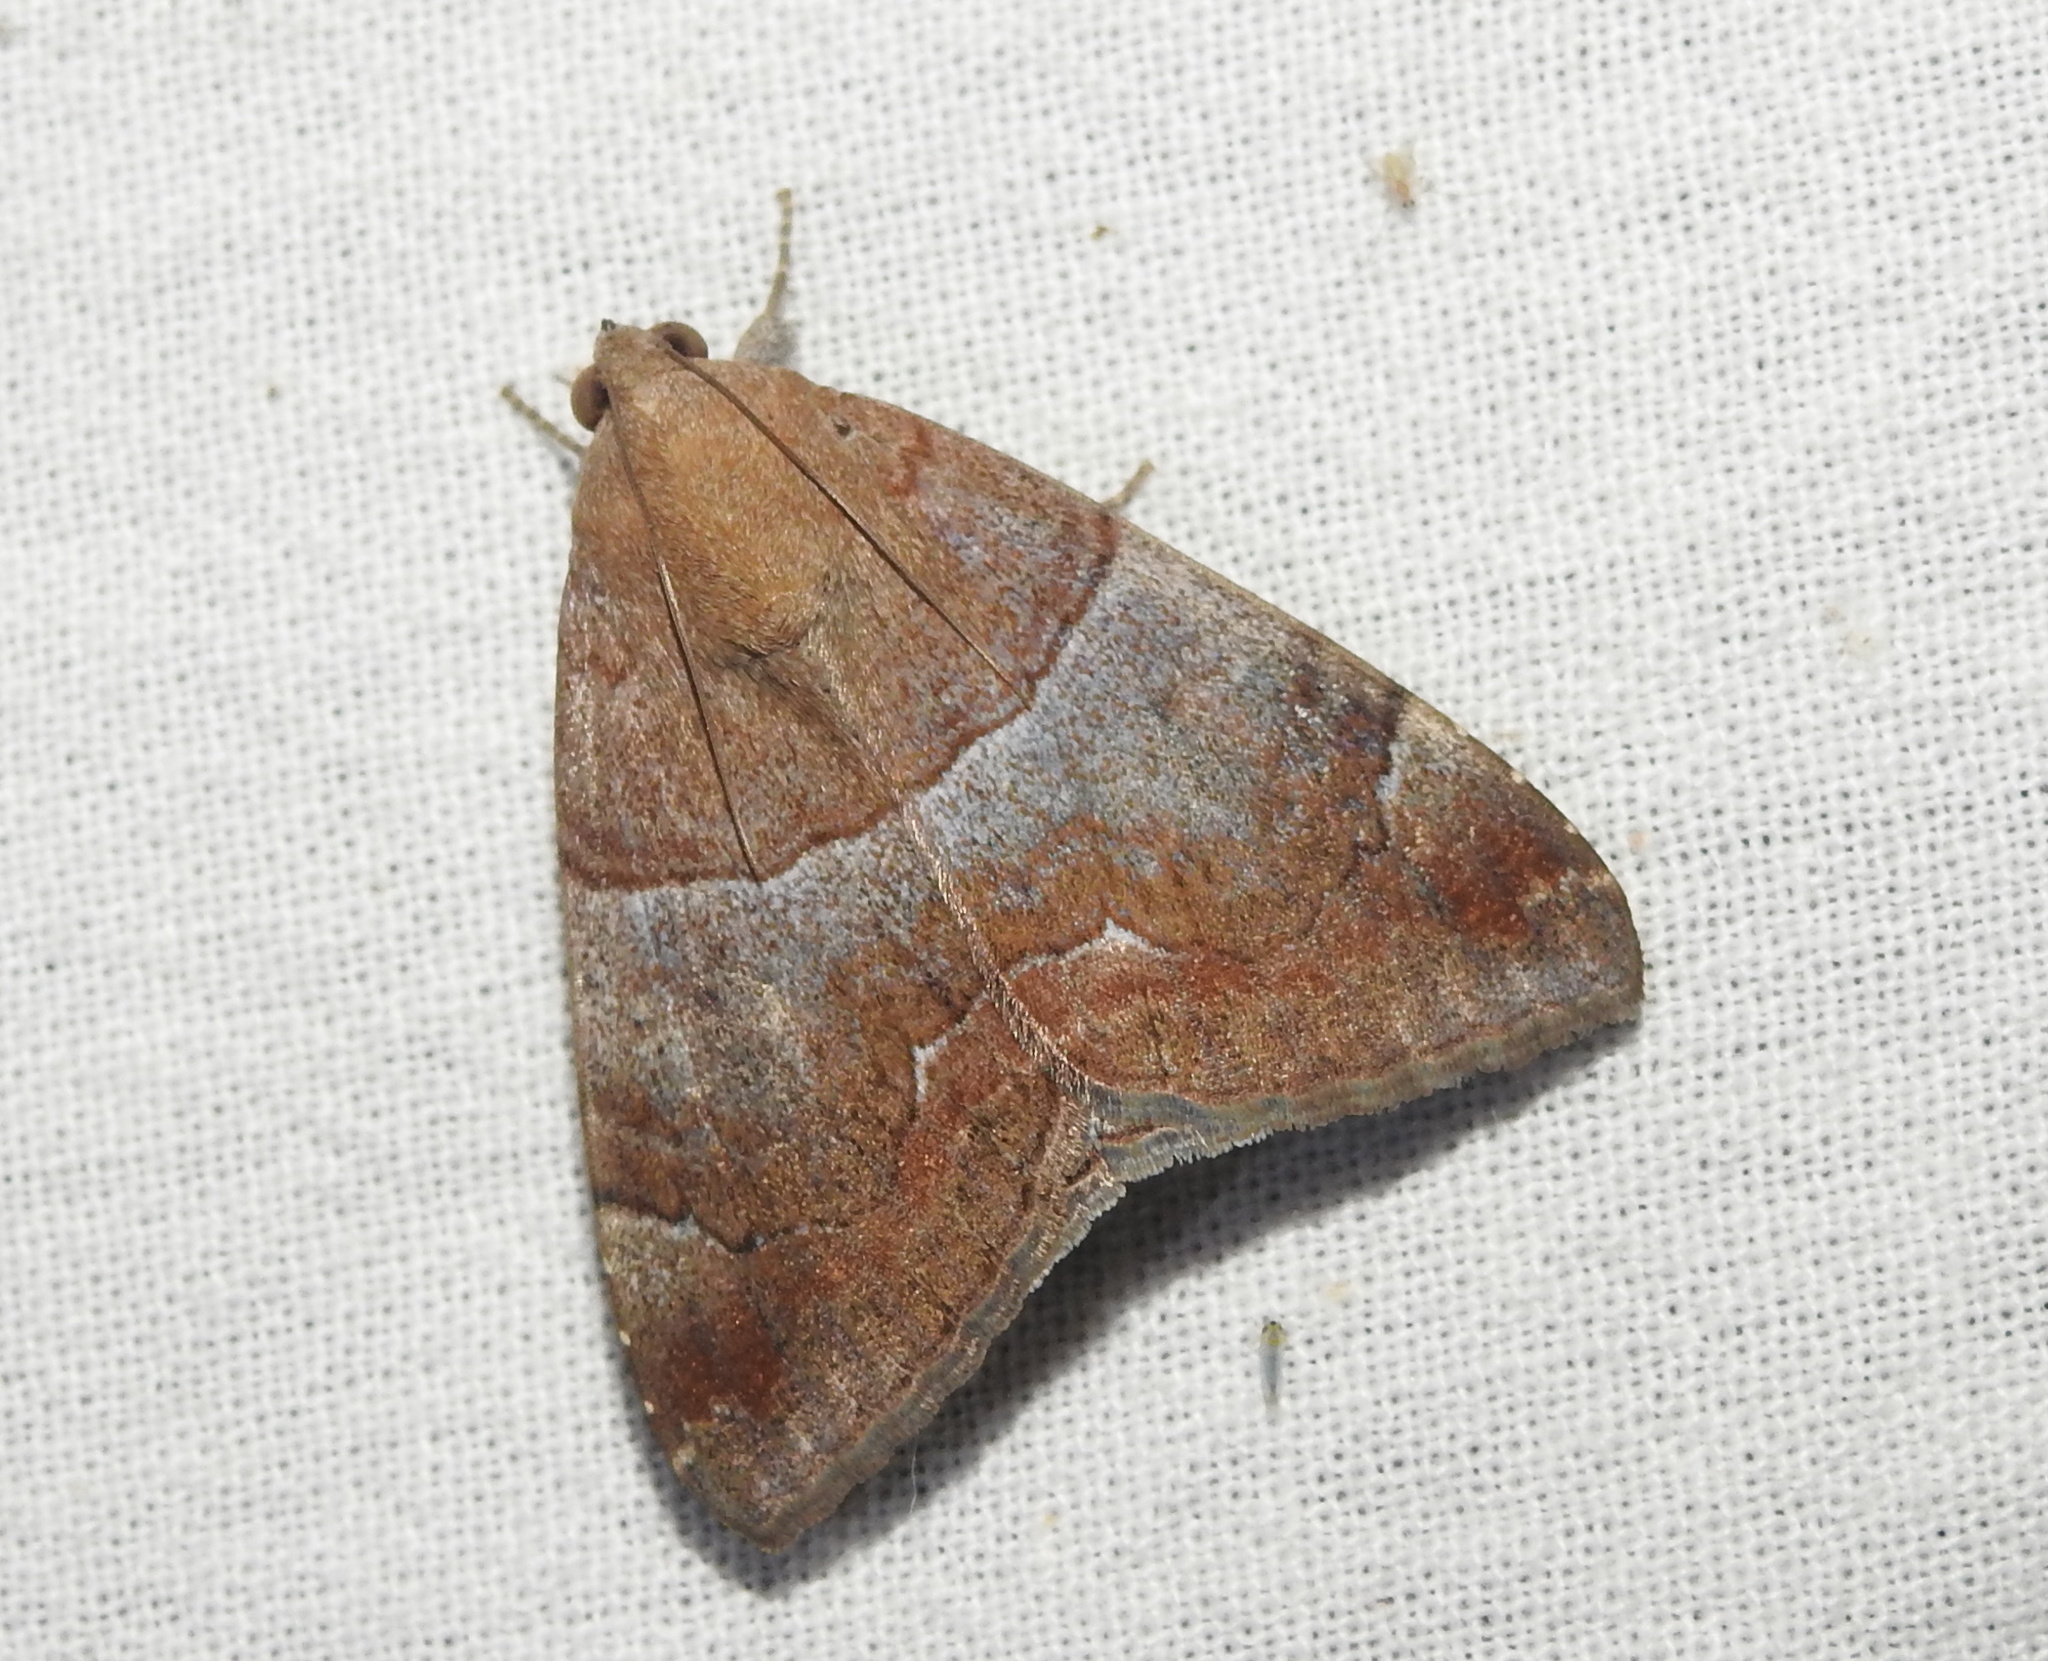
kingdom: Animalia
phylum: Arthropoda
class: Insecta
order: Lepidoptera
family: Erebidae
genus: Achaea
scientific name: Achaea janata
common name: Croton caterpillar
